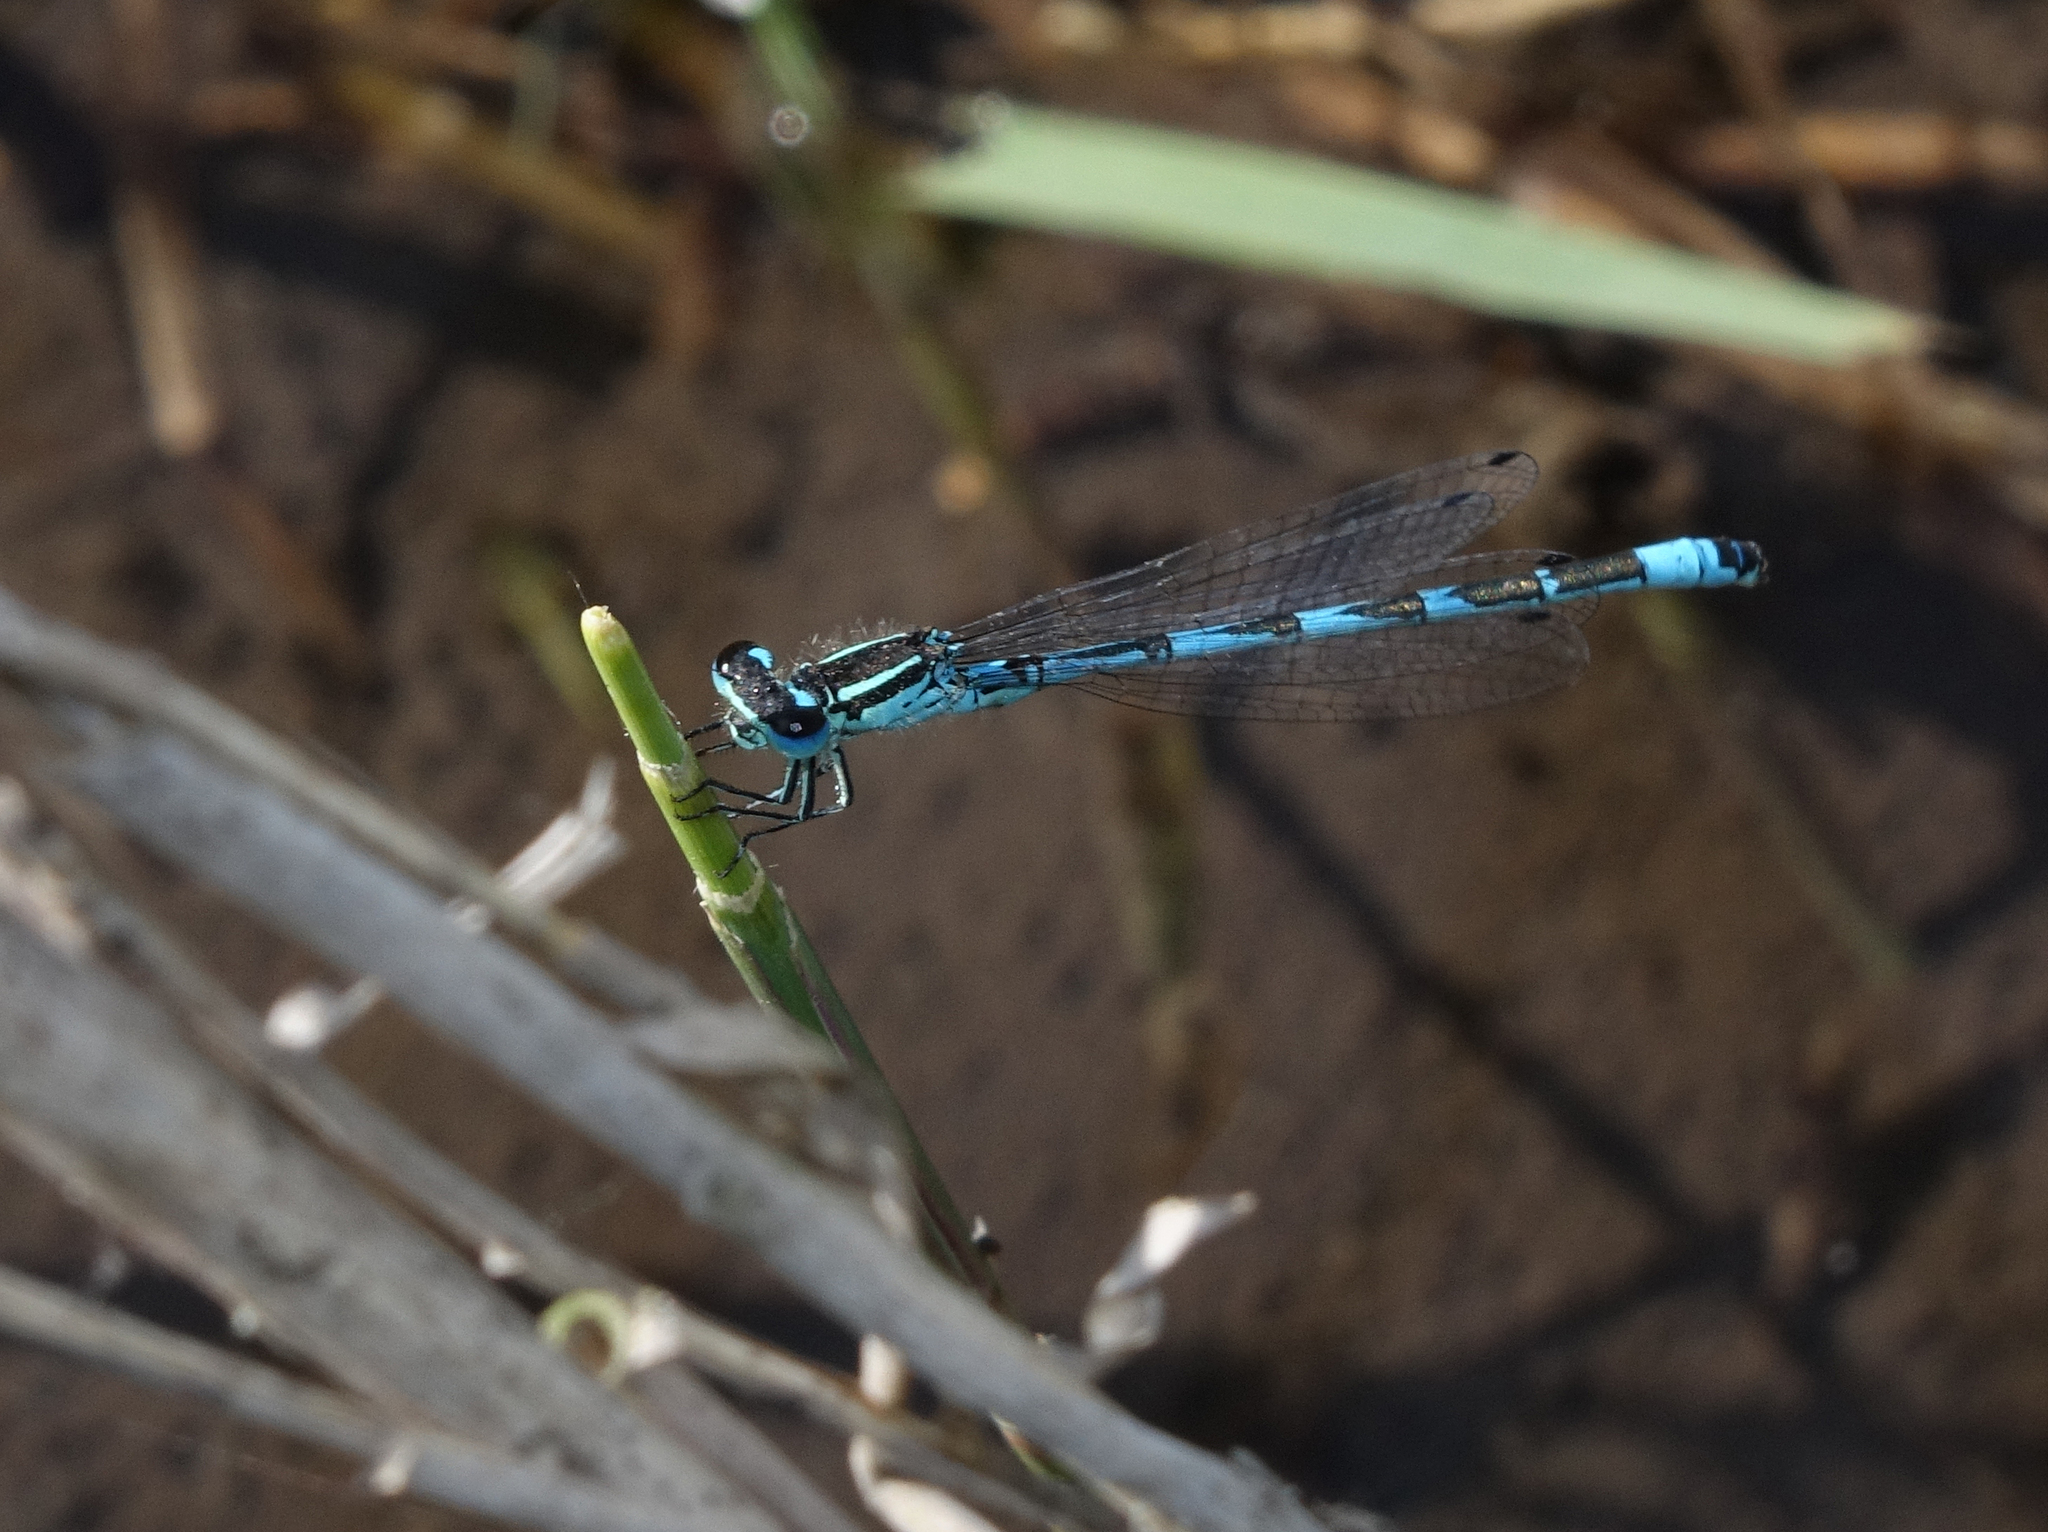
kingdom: Animalia
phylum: Arthropoda
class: Insecta
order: Odonata
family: Coenagrionidae
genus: Coenagrion
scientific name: Coenagrion ornatum
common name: Ornate bluet
